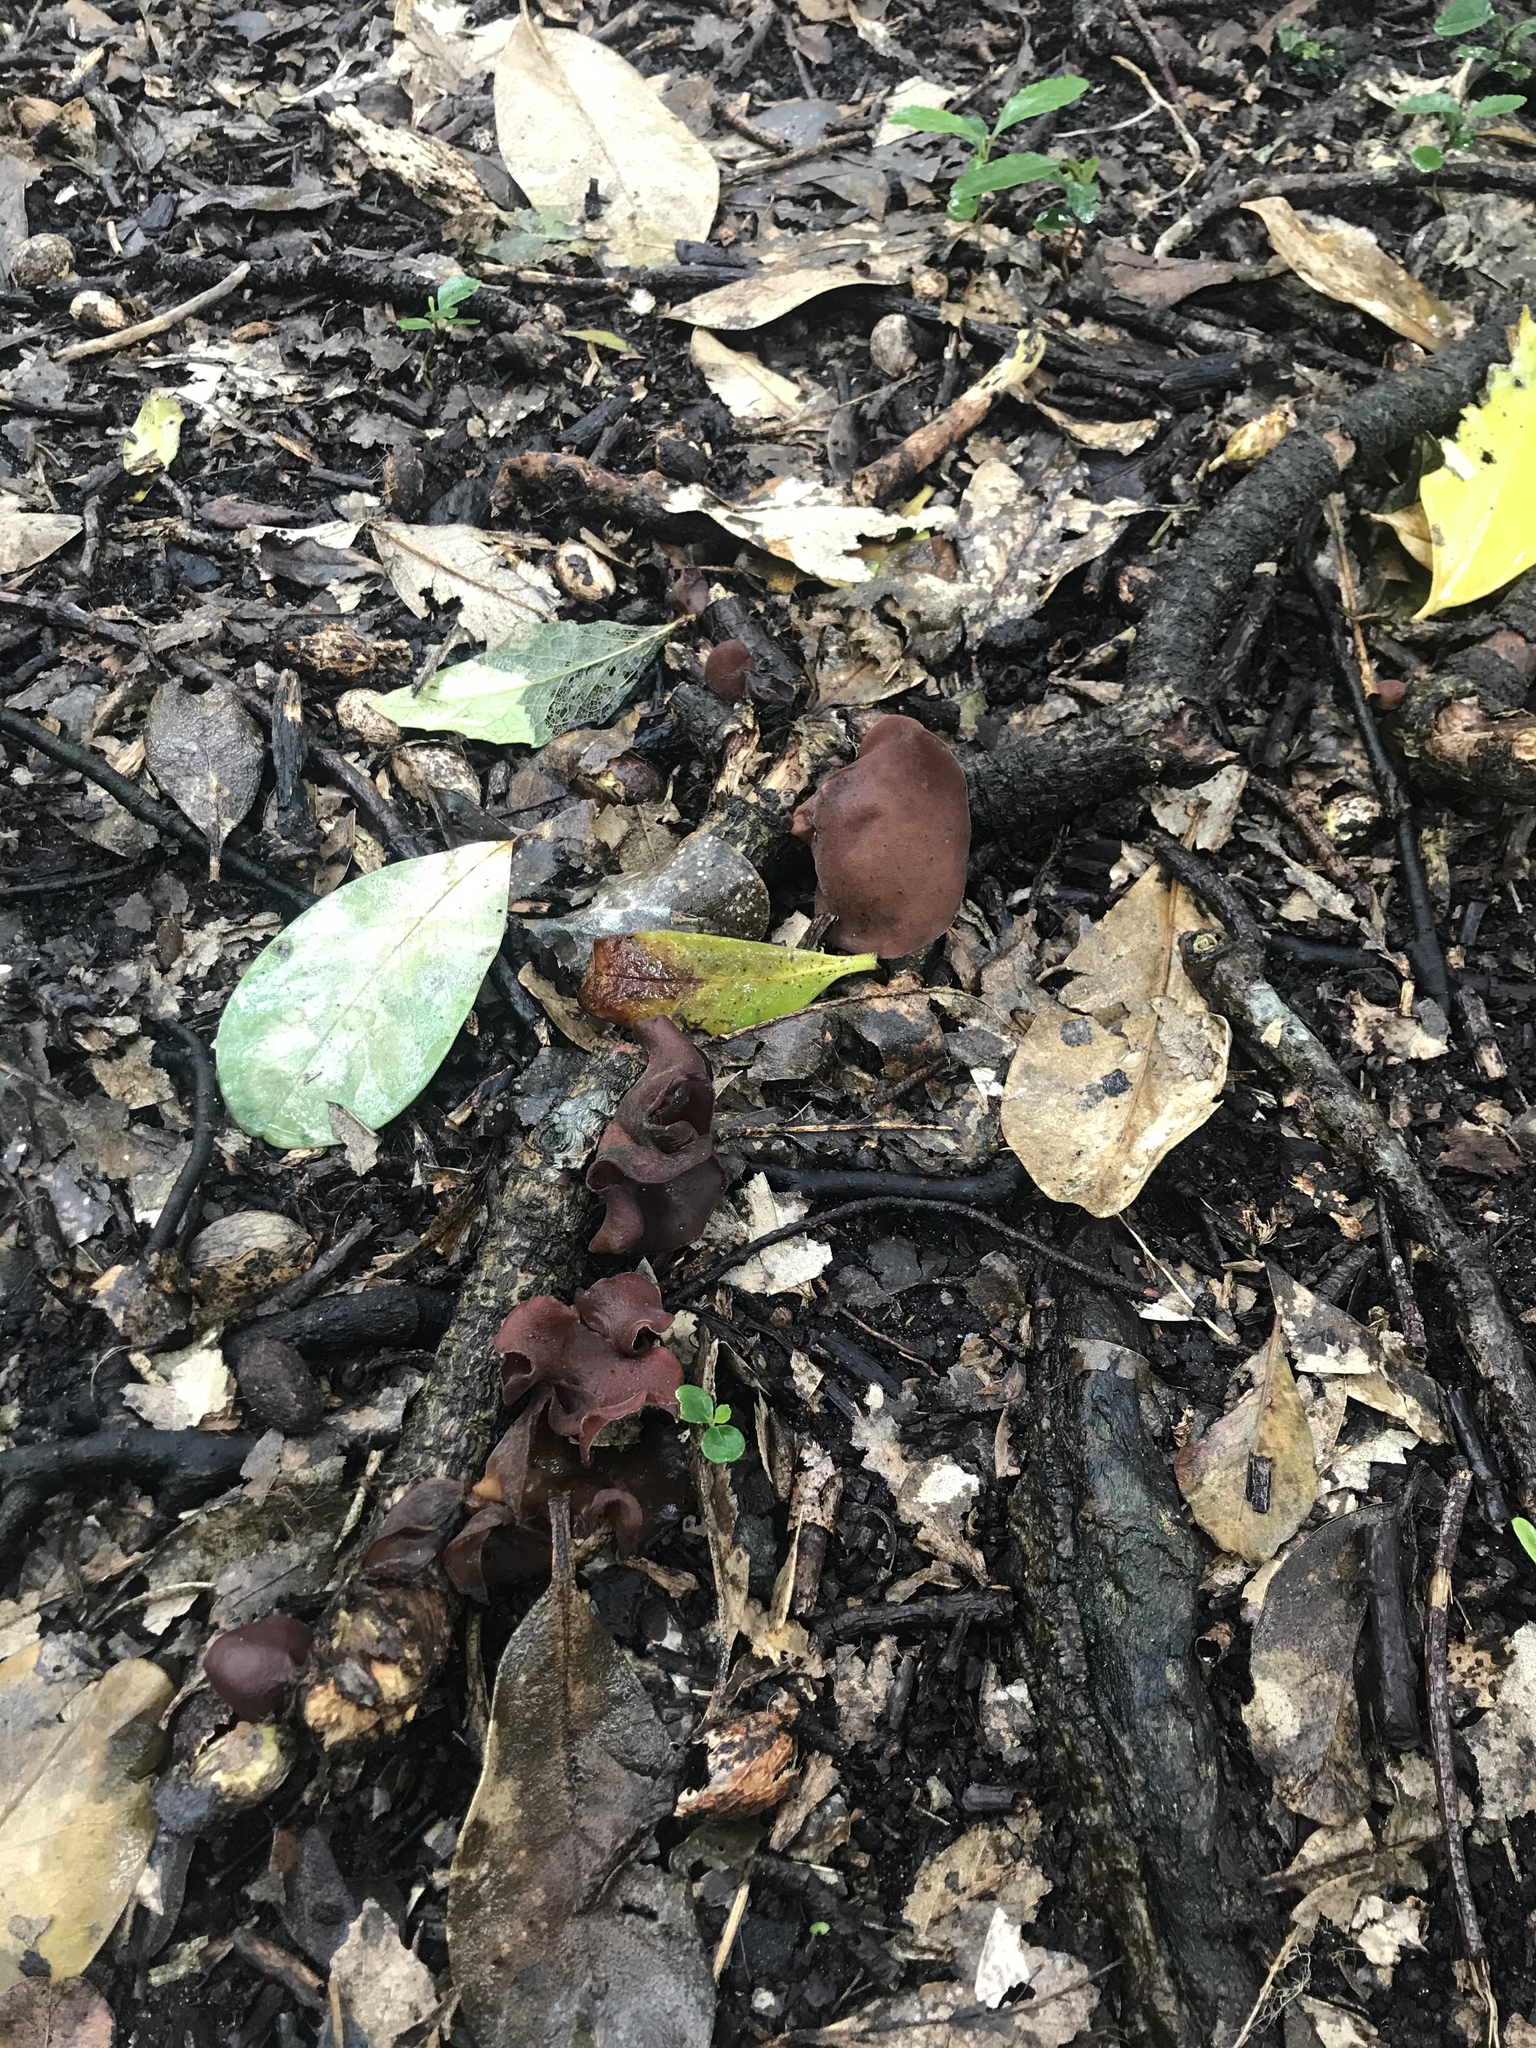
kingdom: Fungi
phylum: Basidiomycota
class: Agaricomycetes
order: Auriculariales
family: Auriculariaceae
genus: Auricularia
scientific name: Auricularia cornea
